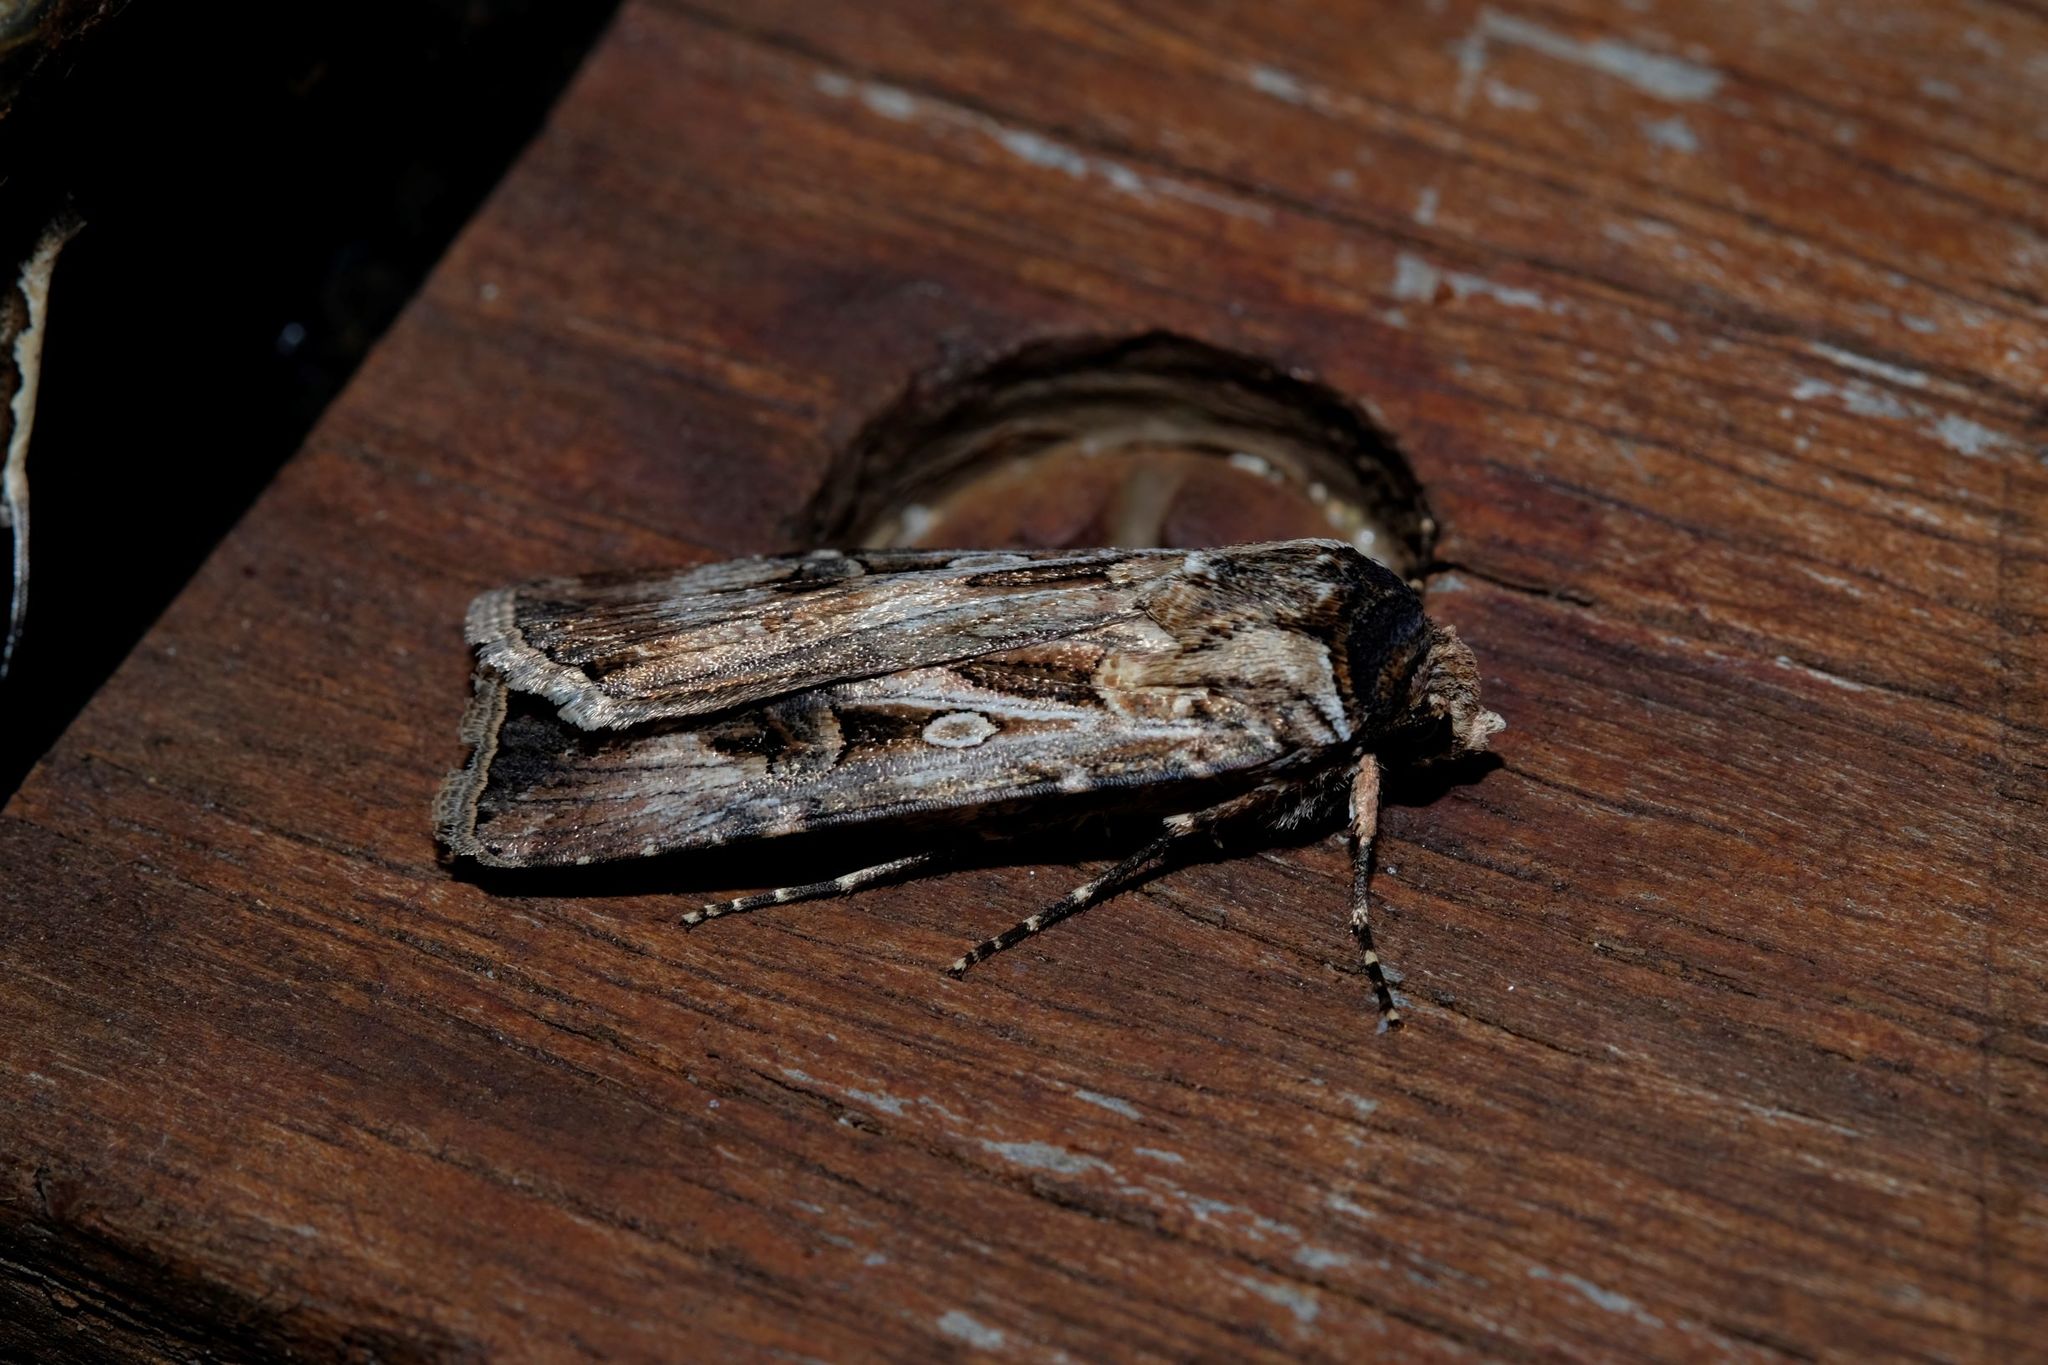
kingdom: Animalia
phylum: Arthropoda
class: Insecta
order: Lepidoptera
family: Noctuidae
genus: Agrotis
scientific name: Agrotis munda
